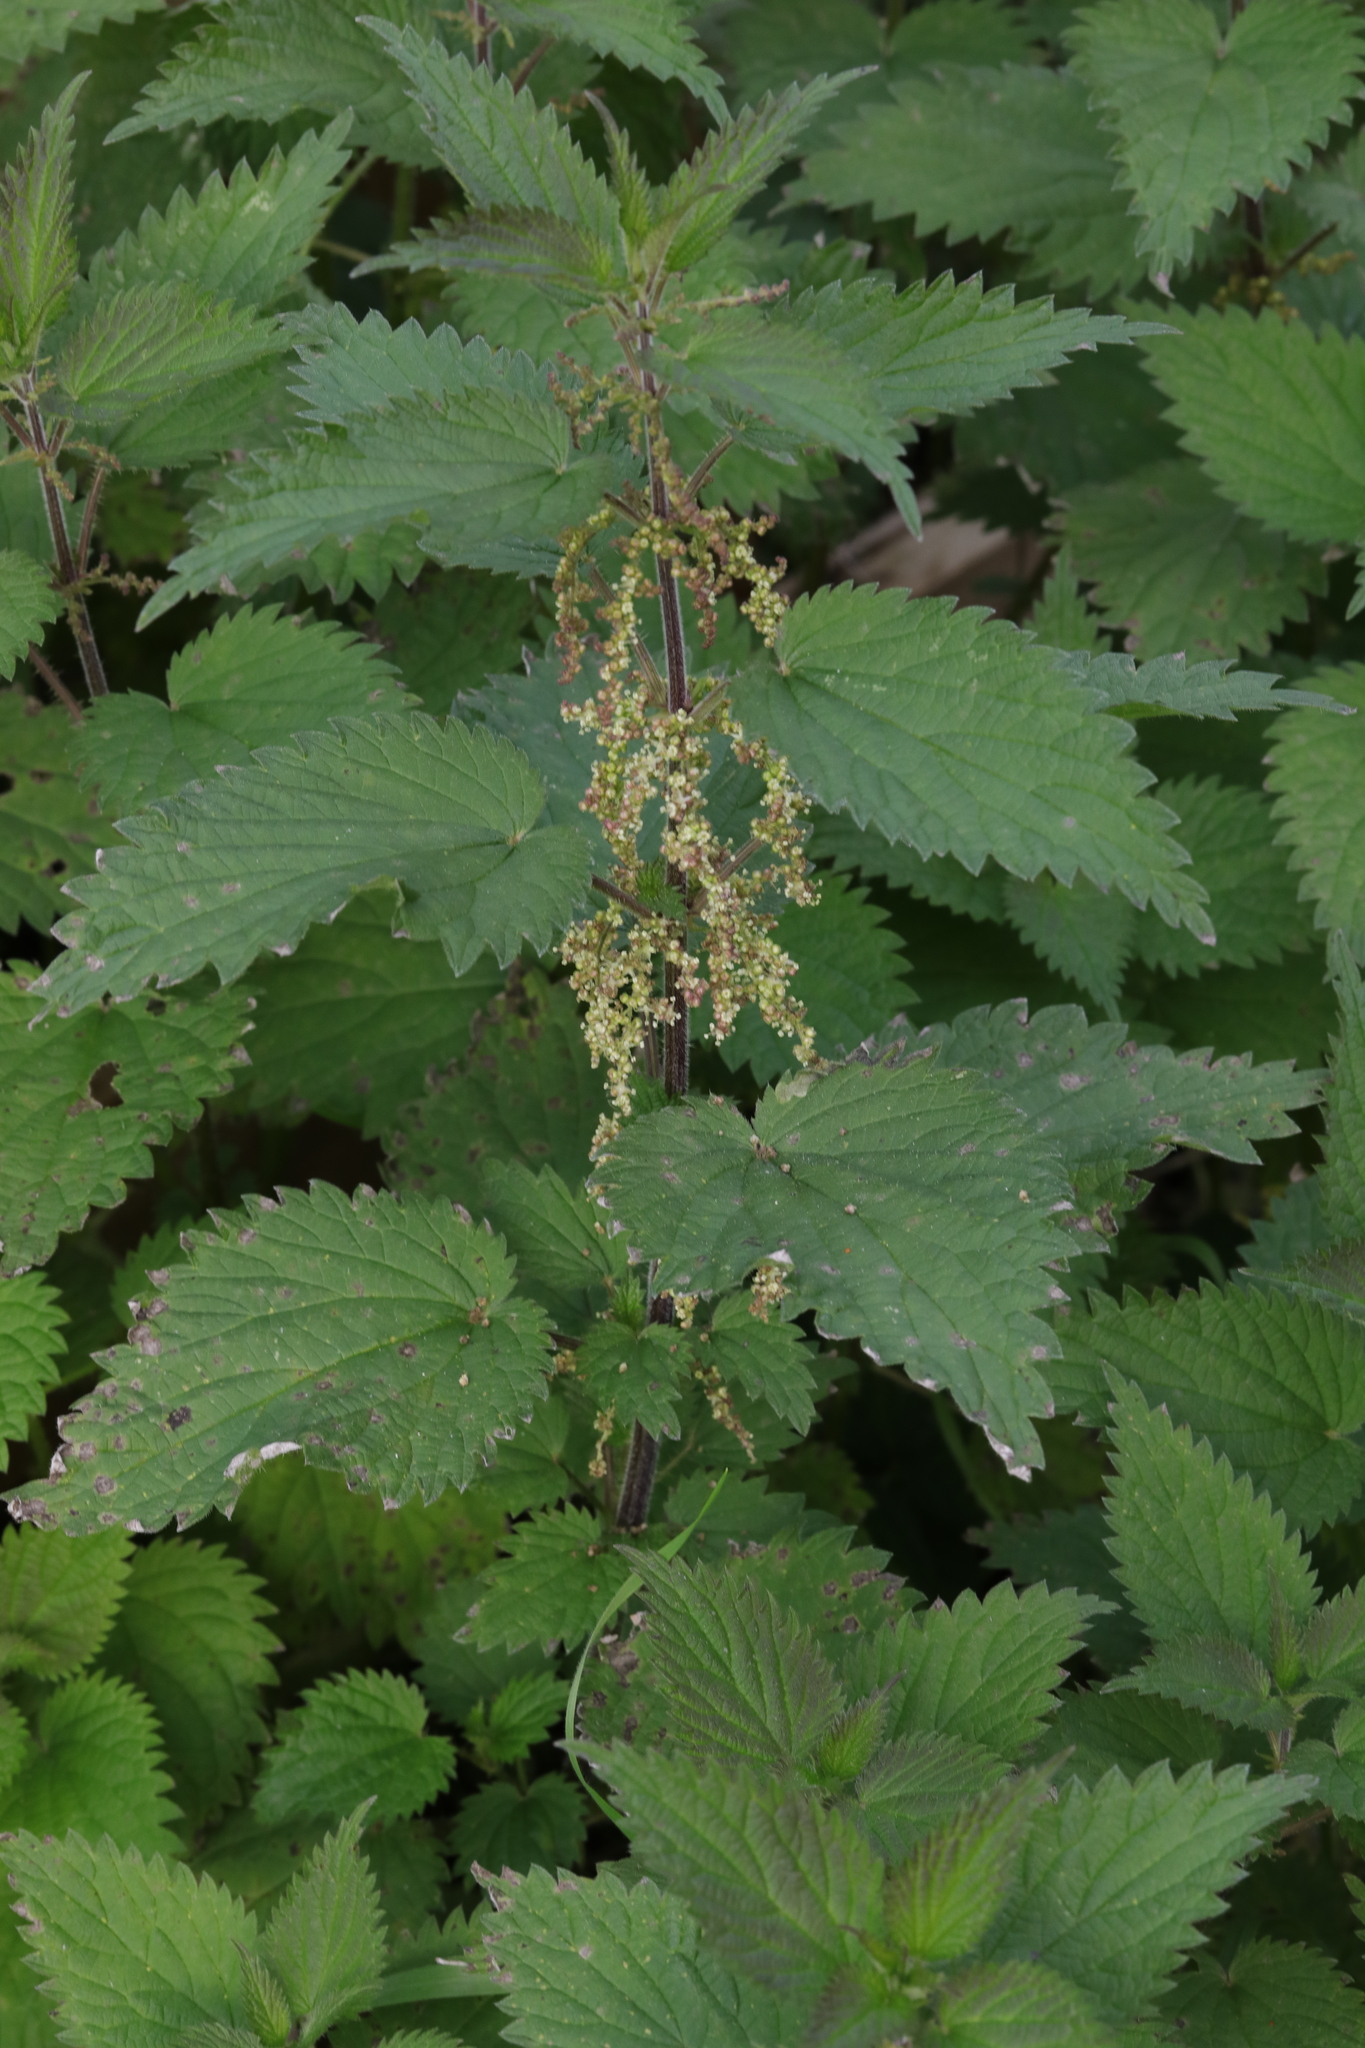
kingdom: Plantae
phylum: Tracheophyta
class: Magnoliopsida
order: Rosales
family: Urticaceae
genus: Urtica
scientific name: Urtica dioica
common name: Common nettle
